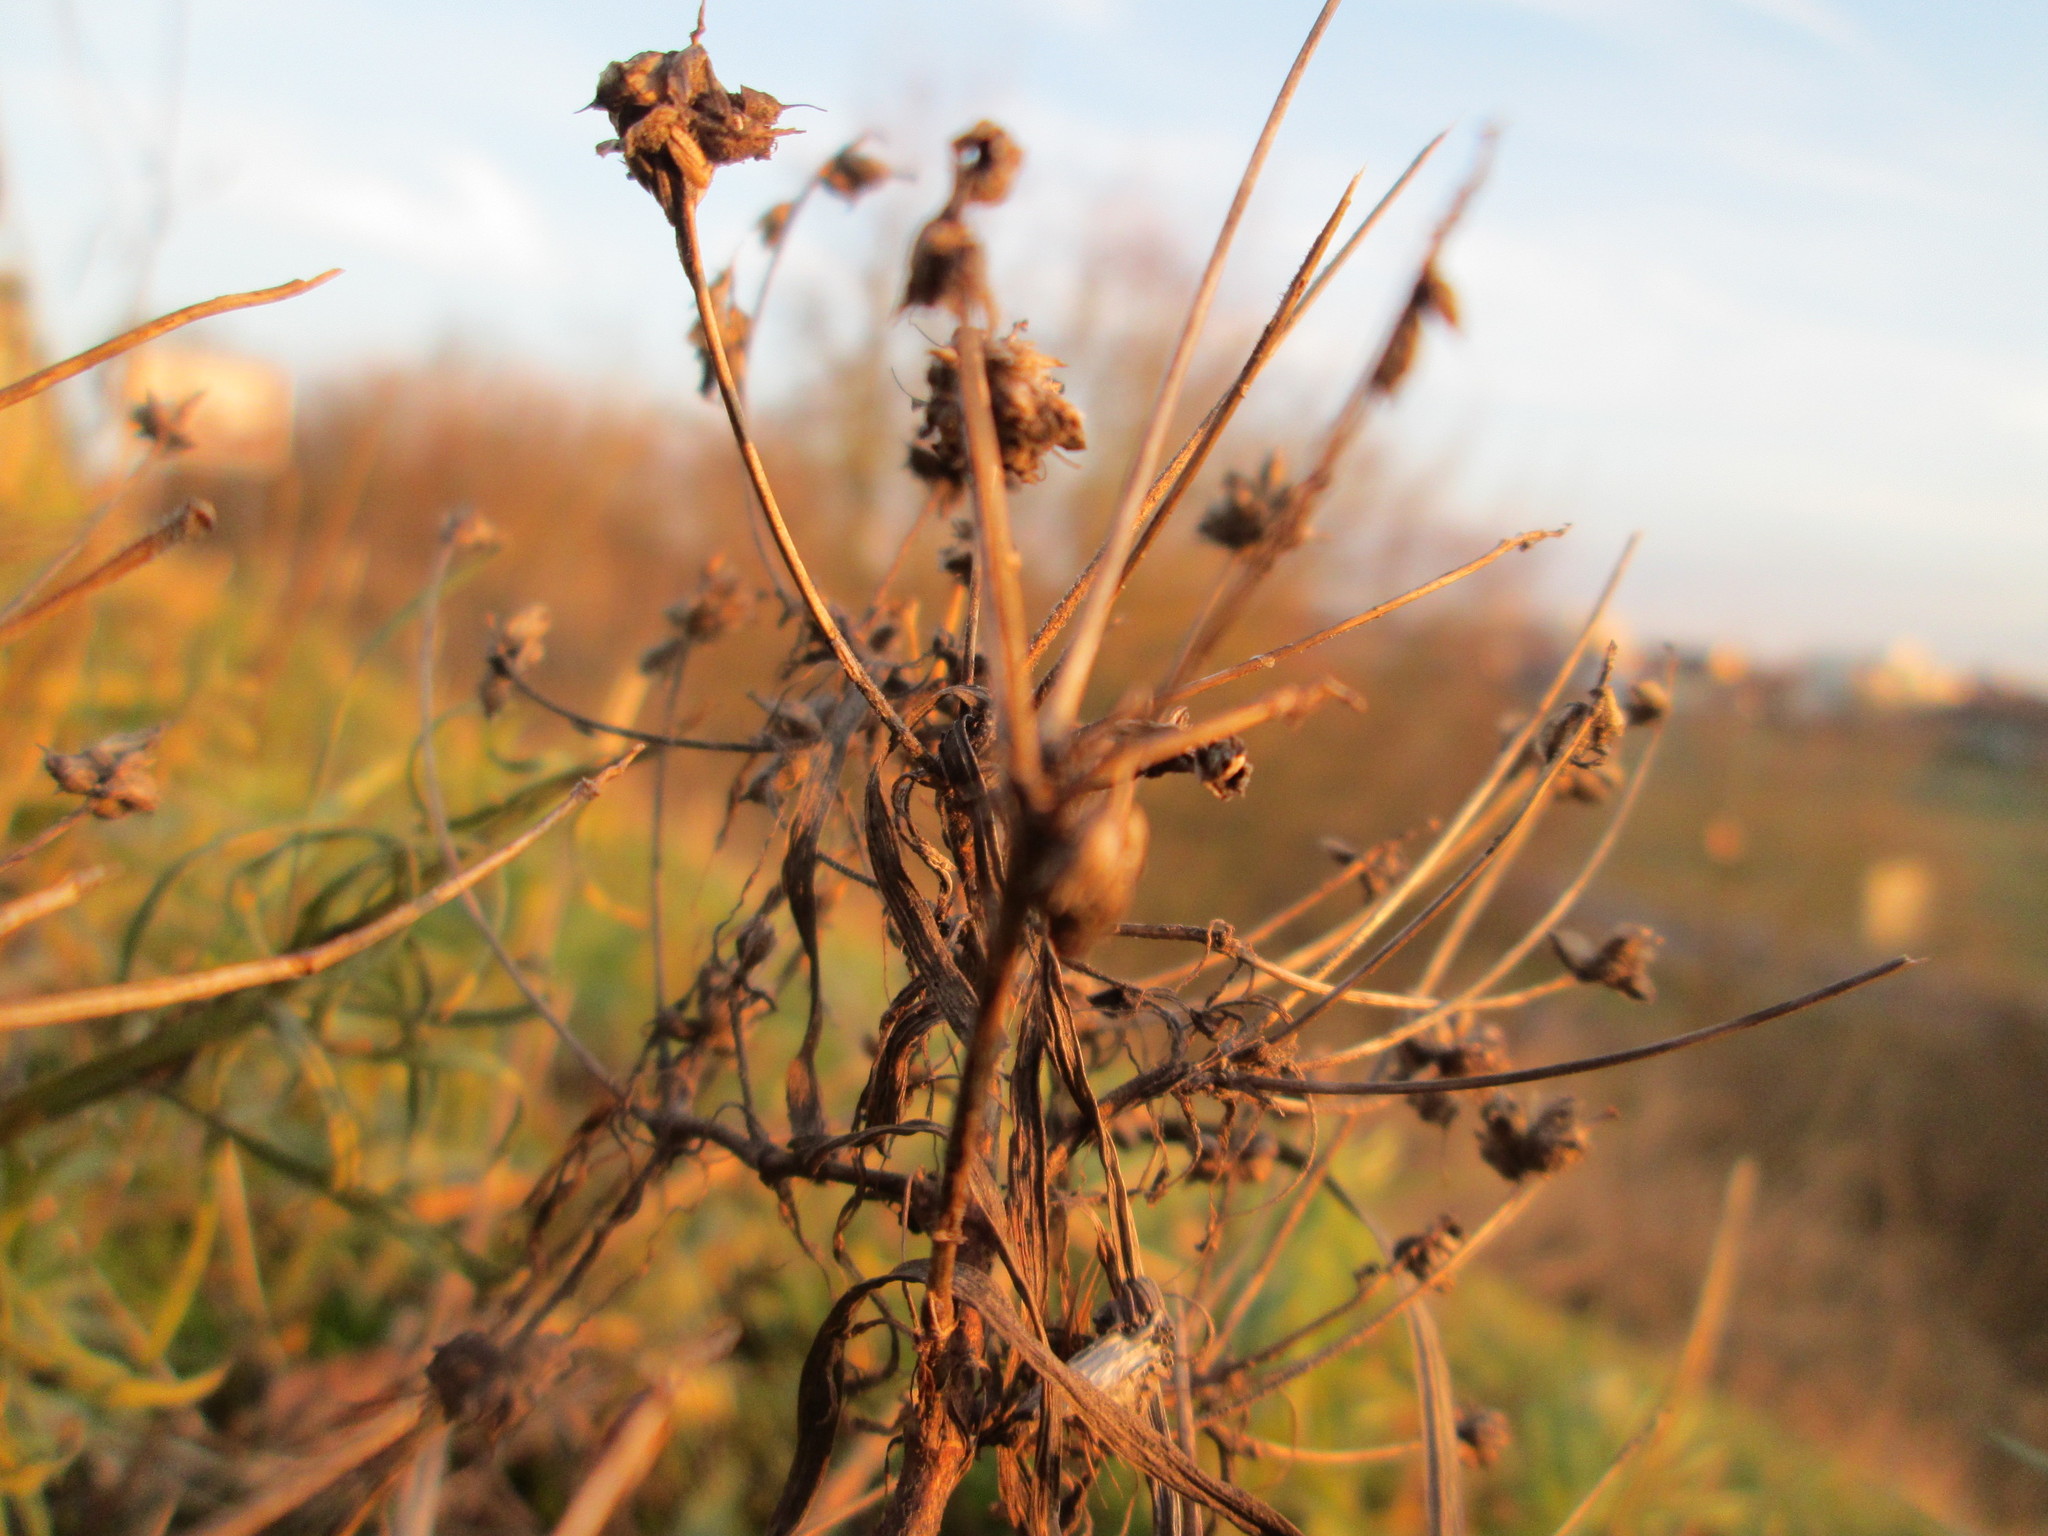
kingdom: Plantae
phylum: Tracheophyta
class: Magnoliopsida
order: Lamiales
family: Plantaginaceae
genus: Plantago
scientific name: Plantago arenaria
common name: Branched plantain
